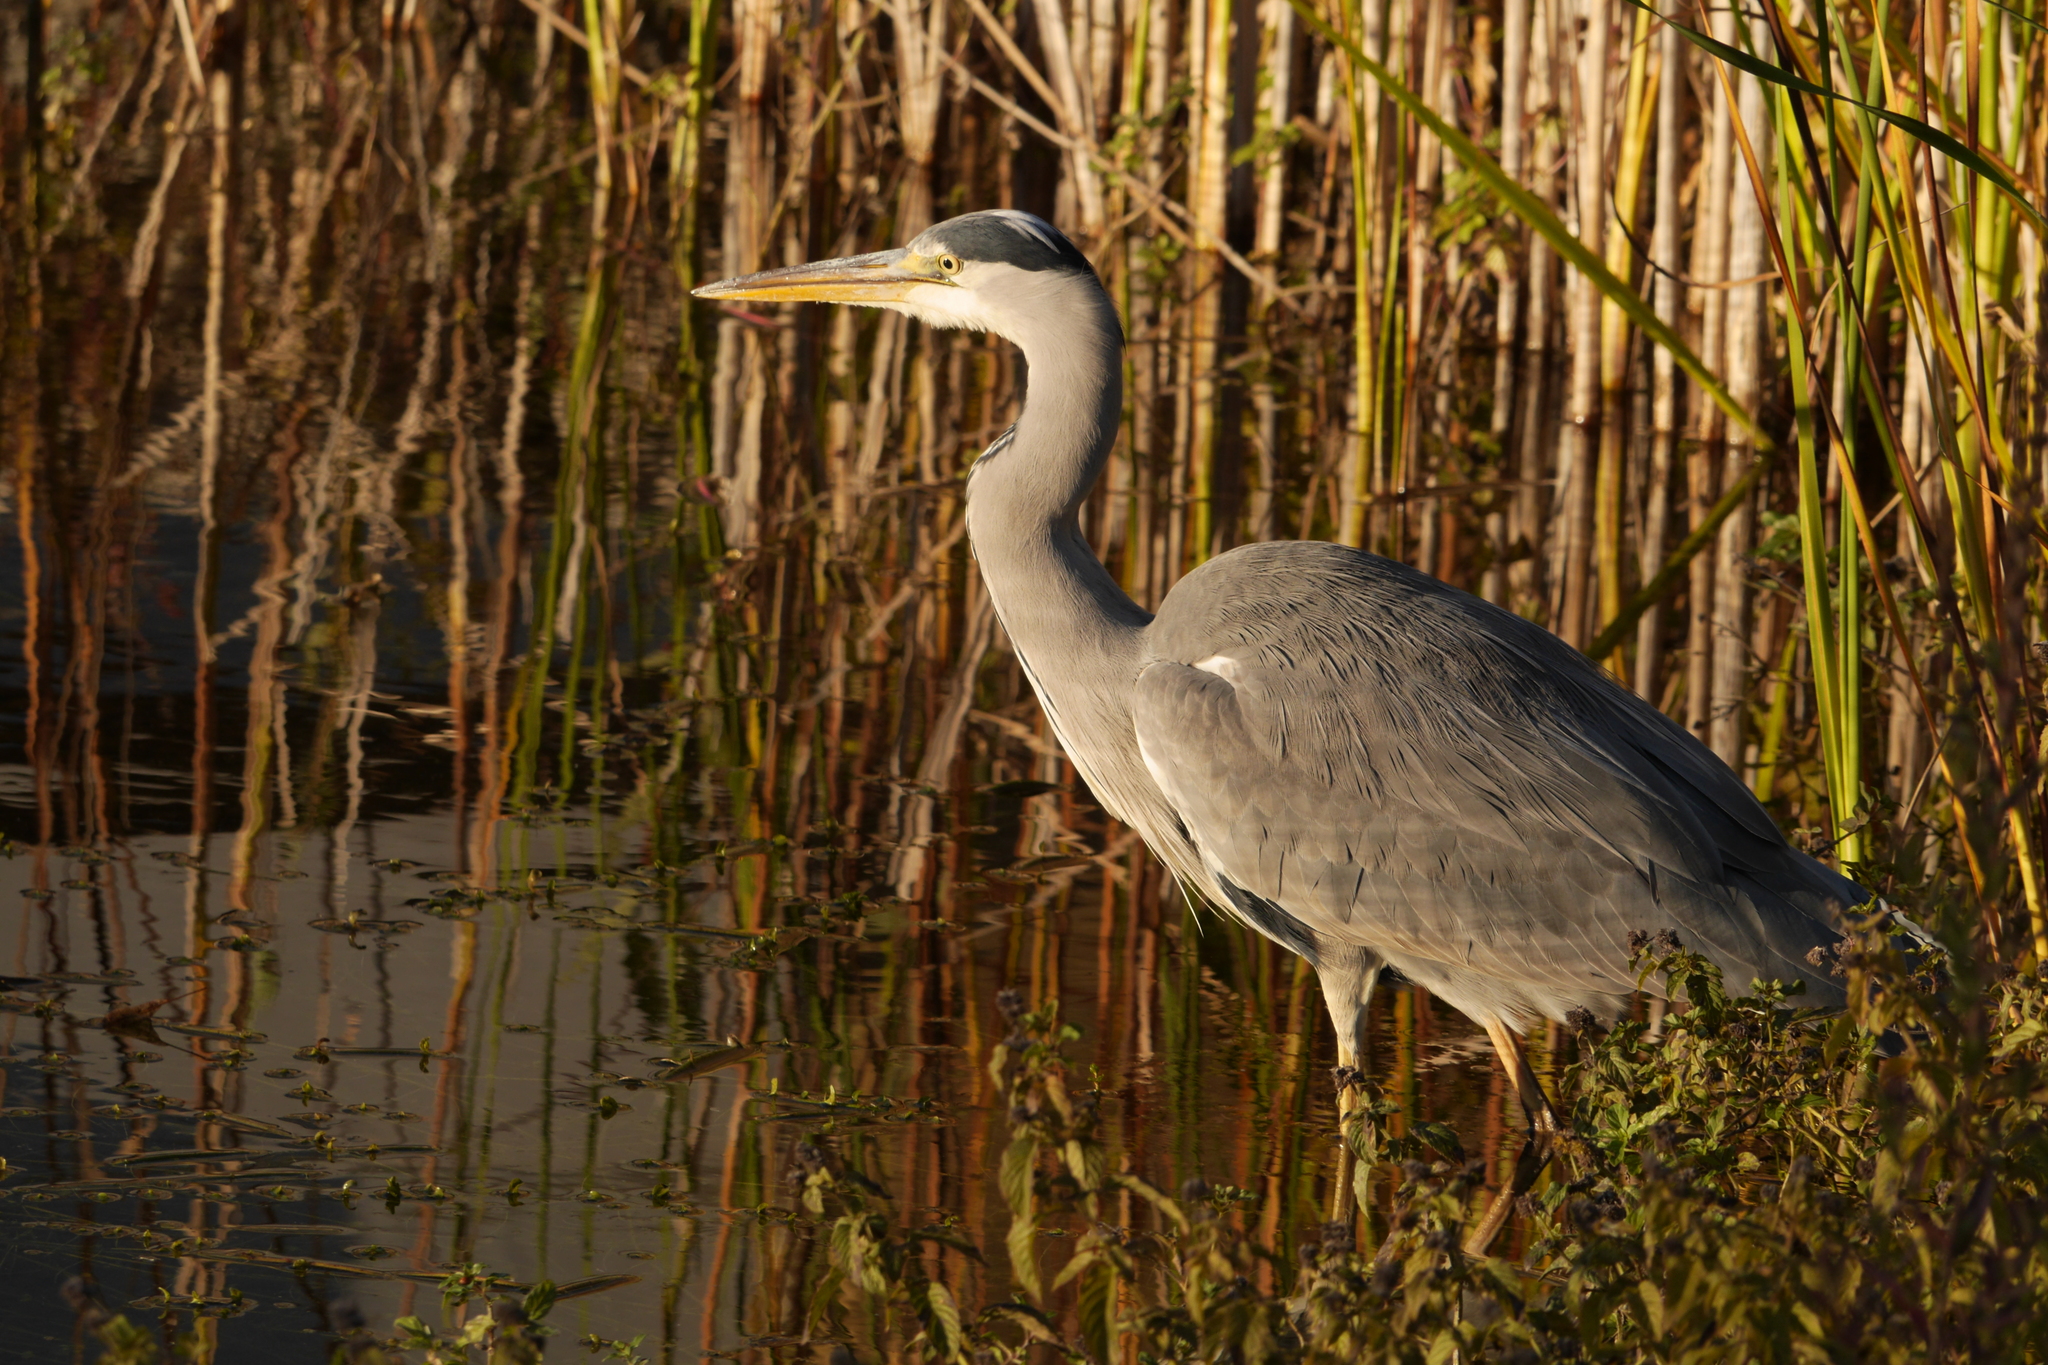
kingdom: Animalia
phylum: Chordata
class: Aves
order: Pelecaniformes
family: Ardeidae
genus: Ardea
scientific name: Ardea cinerea
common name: Grey heron
